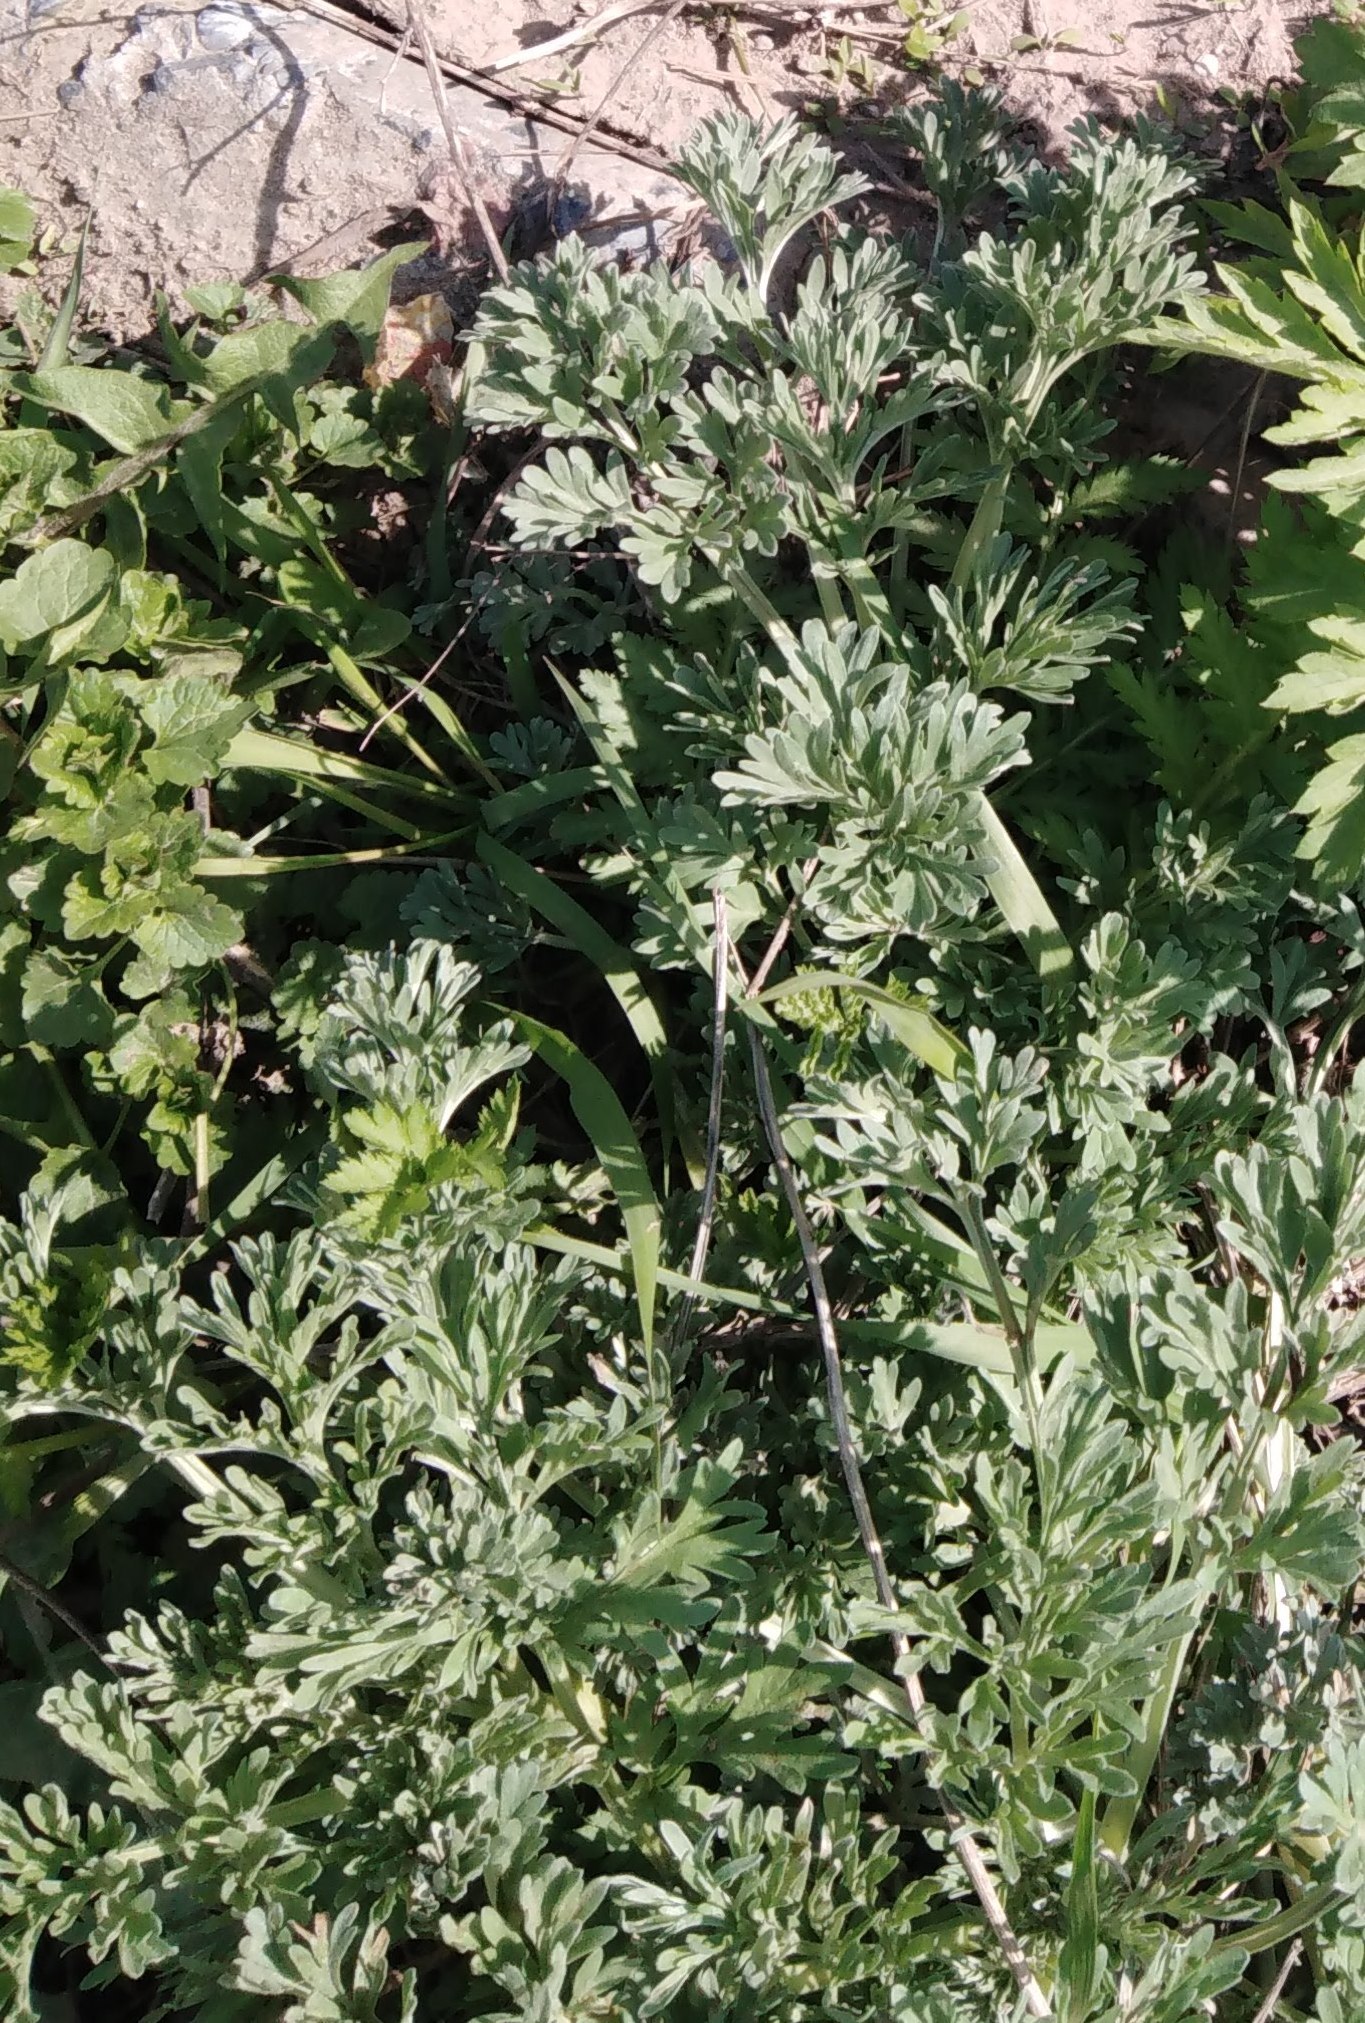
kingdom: Plantae
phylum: Tracheophyta
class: Magnoliopsida
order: Asterales
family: Asteraceae
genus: Artemisia
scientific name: Artemisia absinthium
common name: Wormwood
